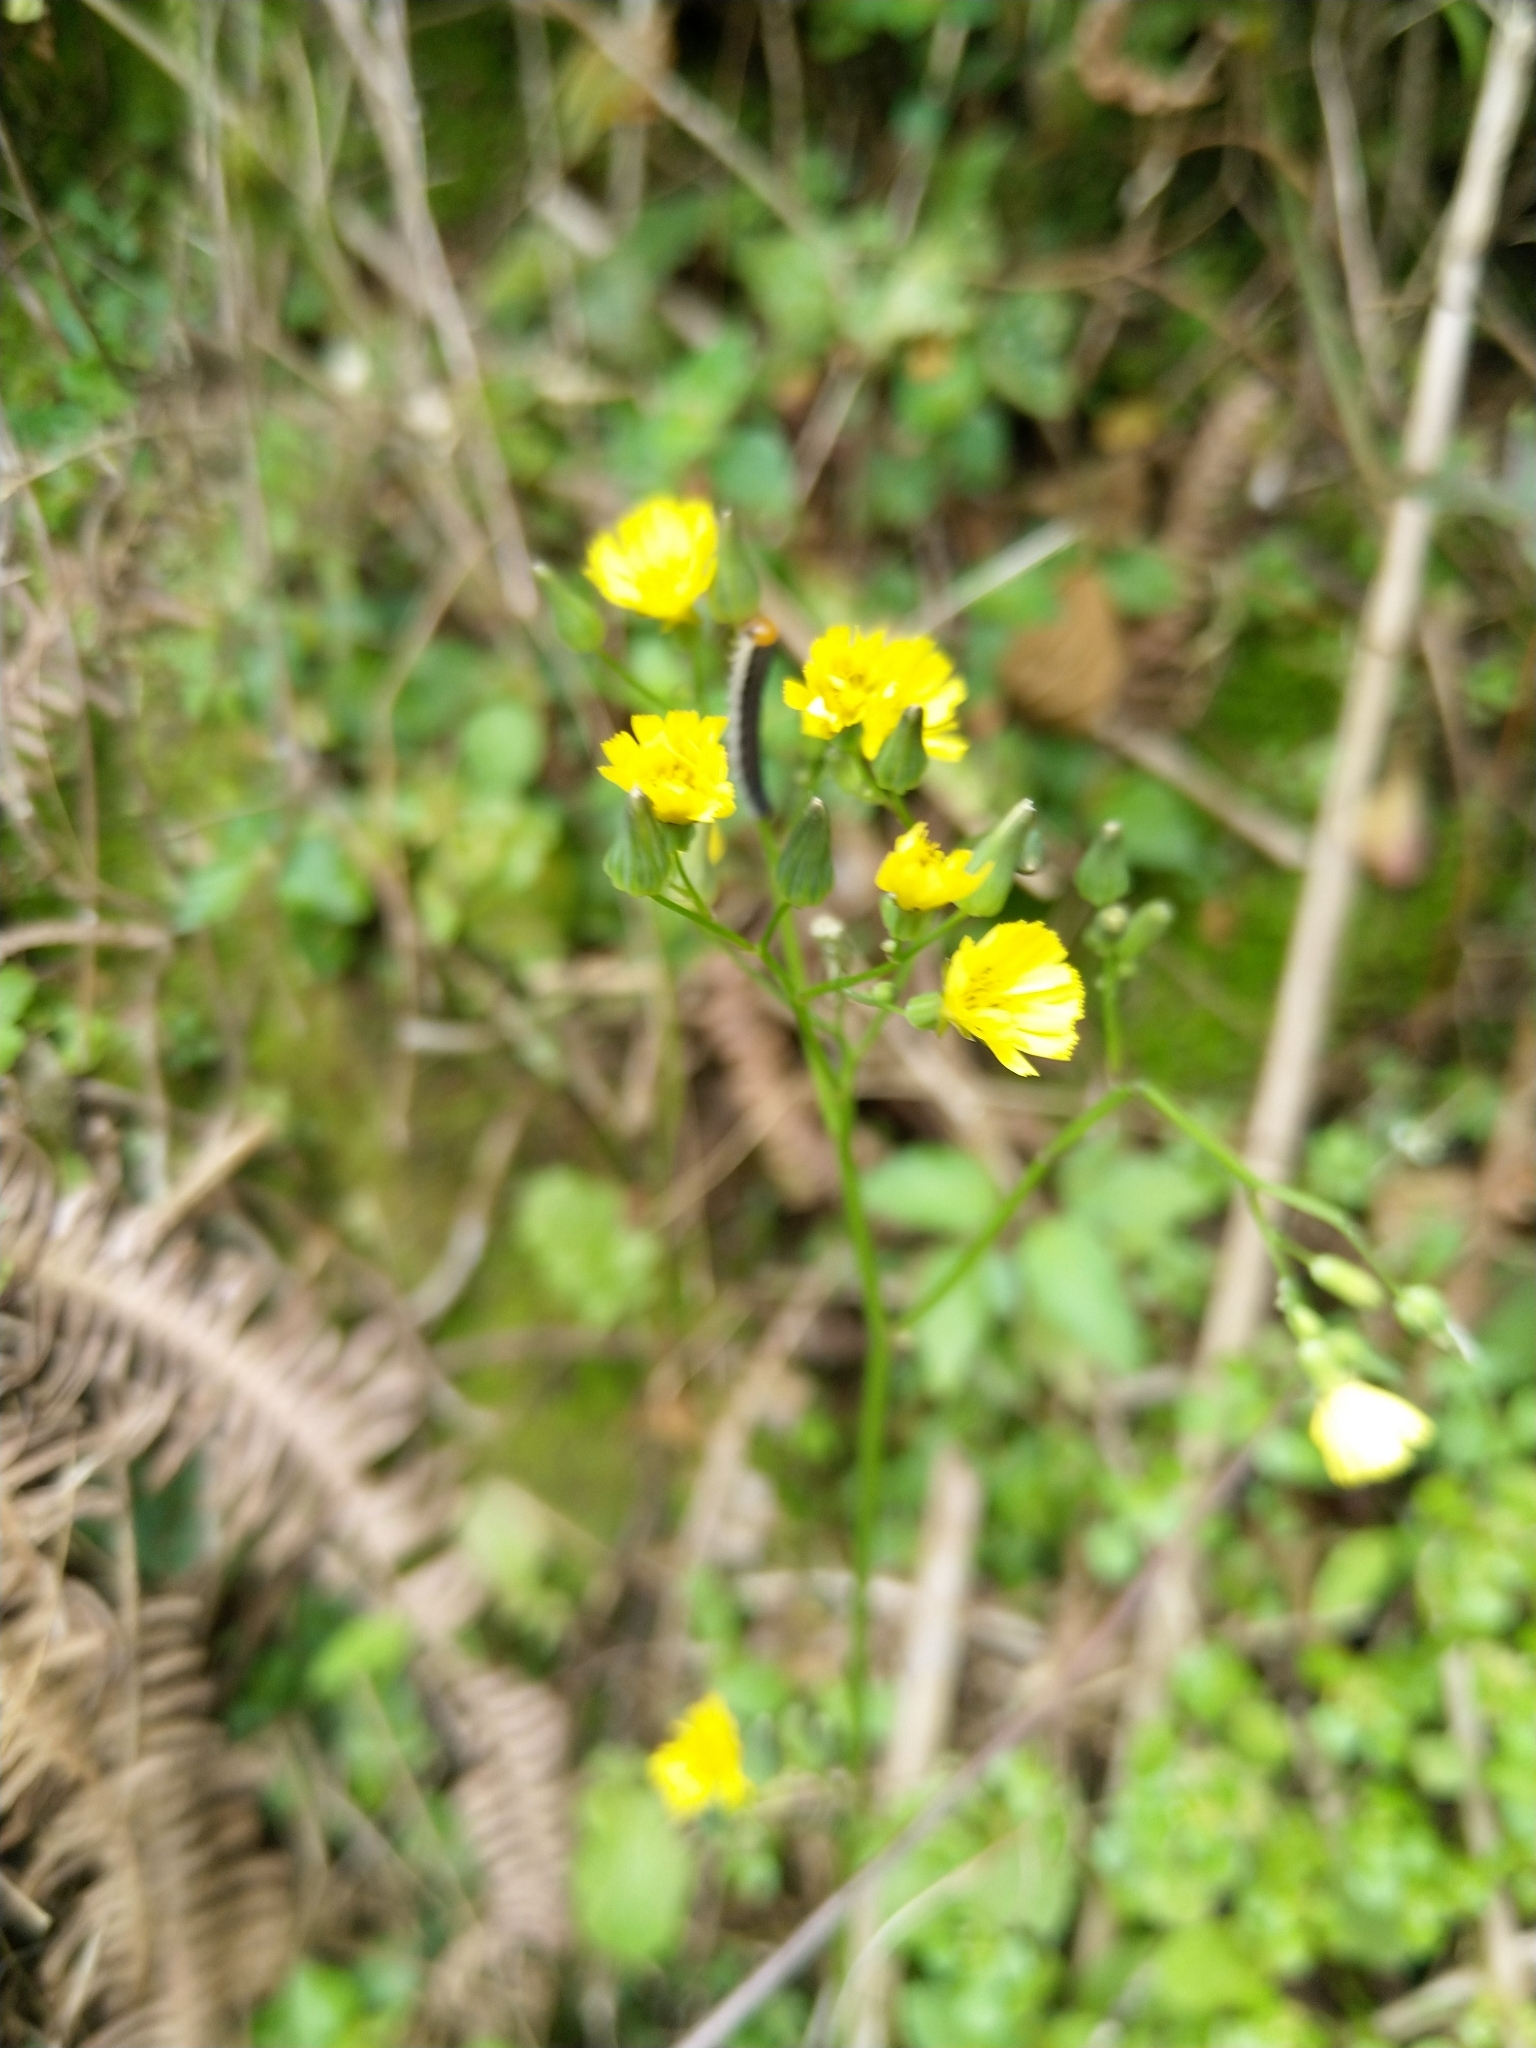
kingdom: Plantae
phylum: Tracheophyta
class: Magnoliopsida
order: Asterales
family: Asteraceae
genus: Youngia
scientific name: Youngia japonica
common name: Oriental false hawksbeard
